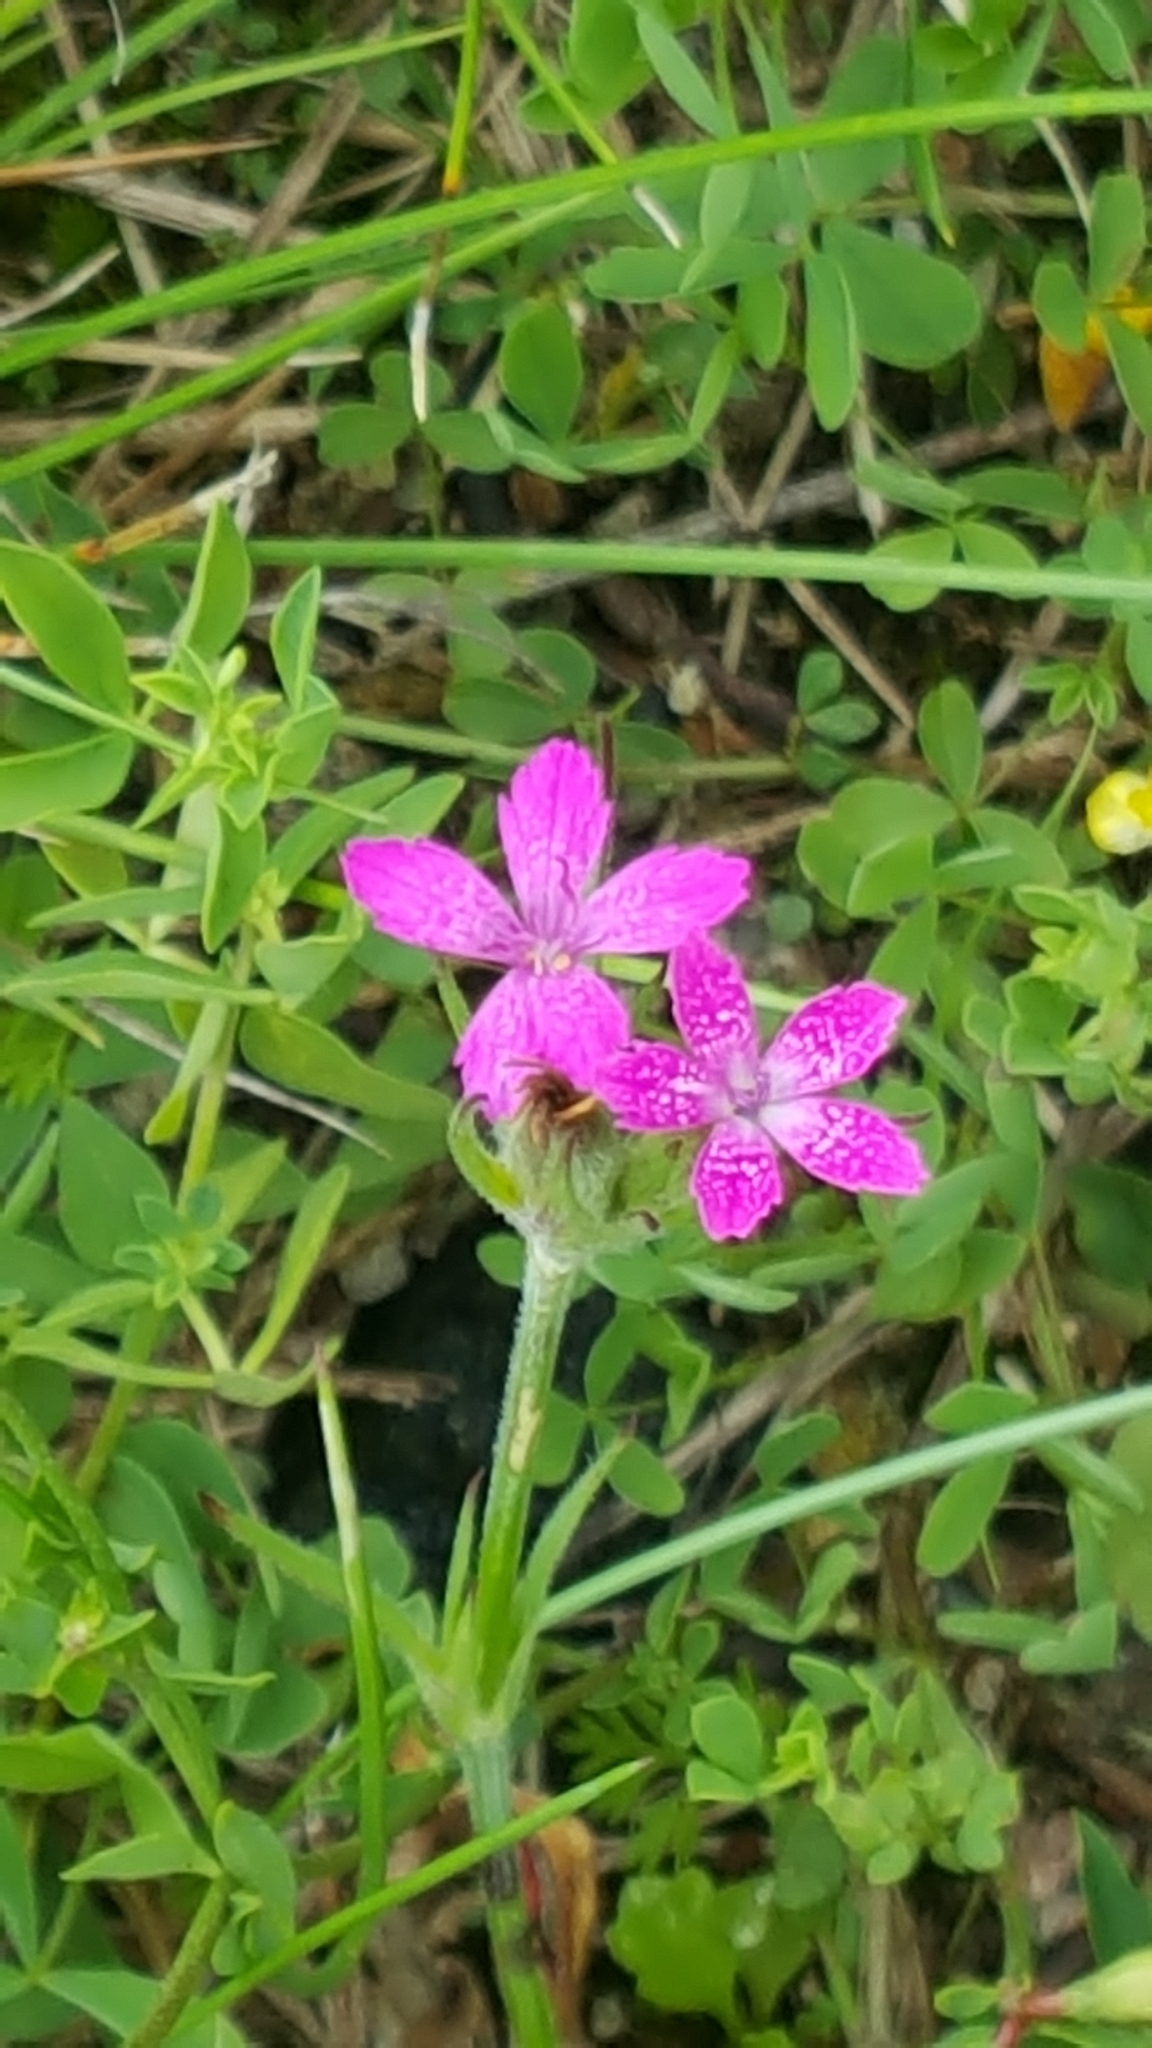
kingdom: Plantae
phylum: Tracheophyta
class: Magnoliopsida
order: Caryophyllales
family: Caryophyllaceae
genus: Dianthus
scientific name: Dianthus armeria
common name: Deptford pink
